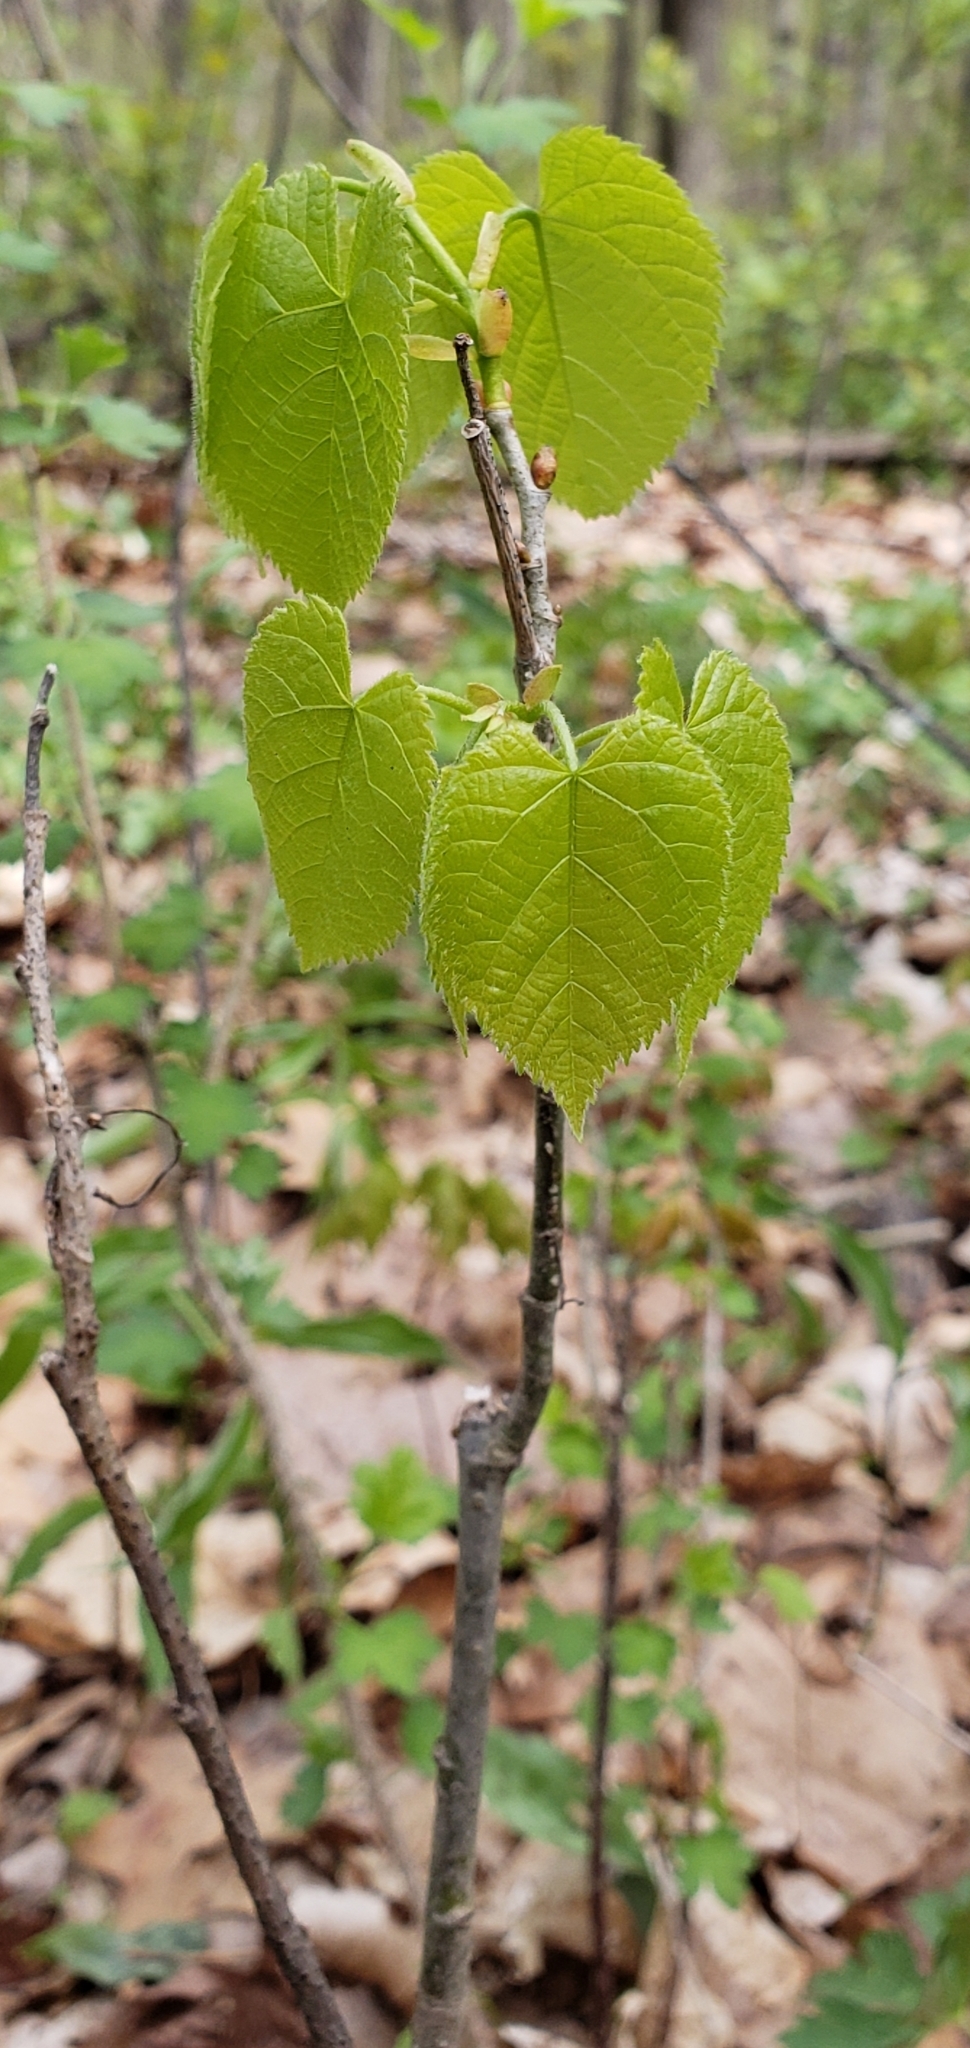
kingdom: Plantae
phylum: Tracheophyta
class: Magnoliopsida
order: Malvales
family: Malvaceae
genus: Tilia
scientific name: Tilia americana
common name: Basswood
